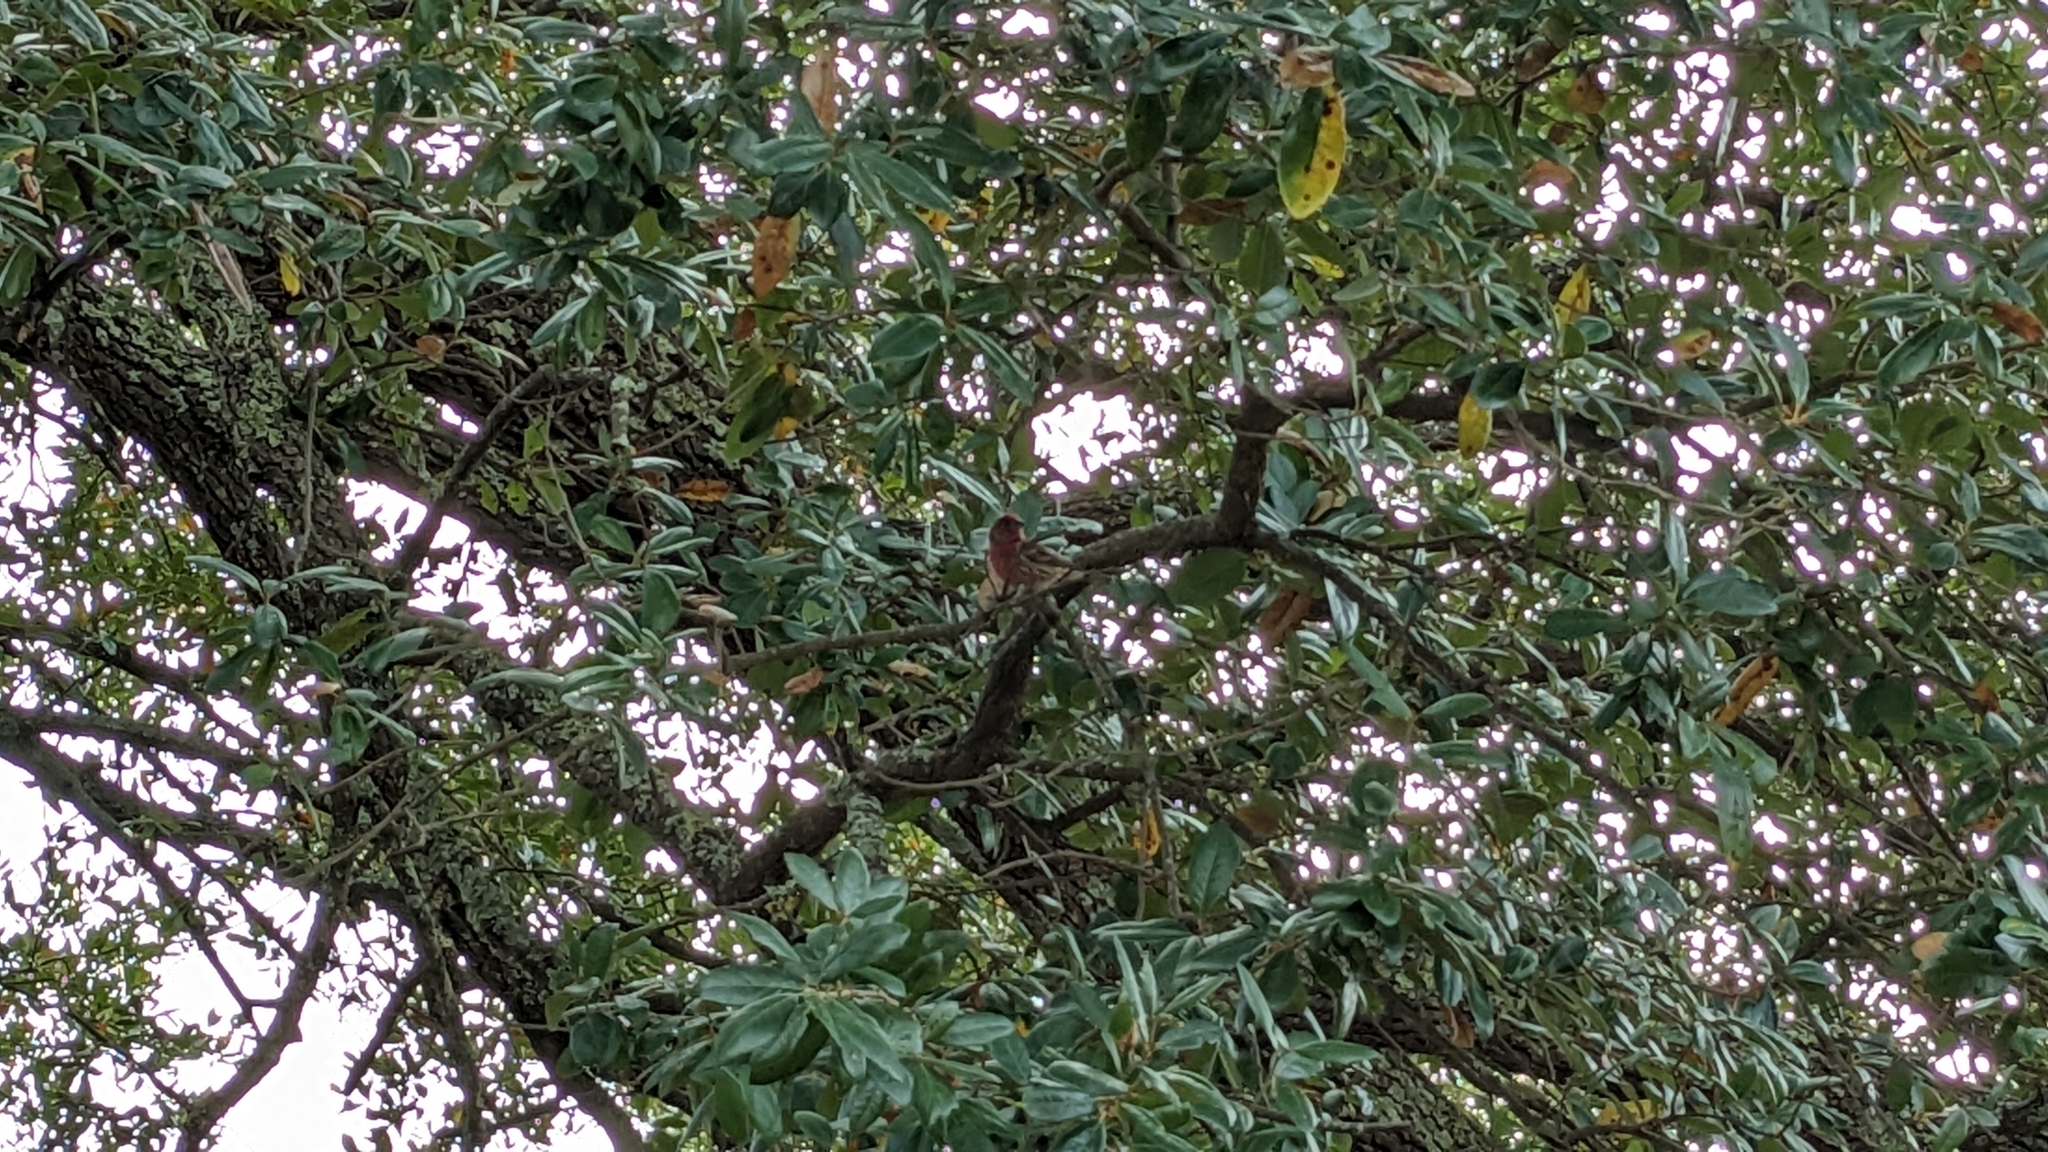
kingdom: Animalia
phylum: Chordata
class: Aves
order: Passeriformes
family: Fringillidae
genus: Haemorhous
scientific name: Haemorhous mexicanus
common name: House finch
